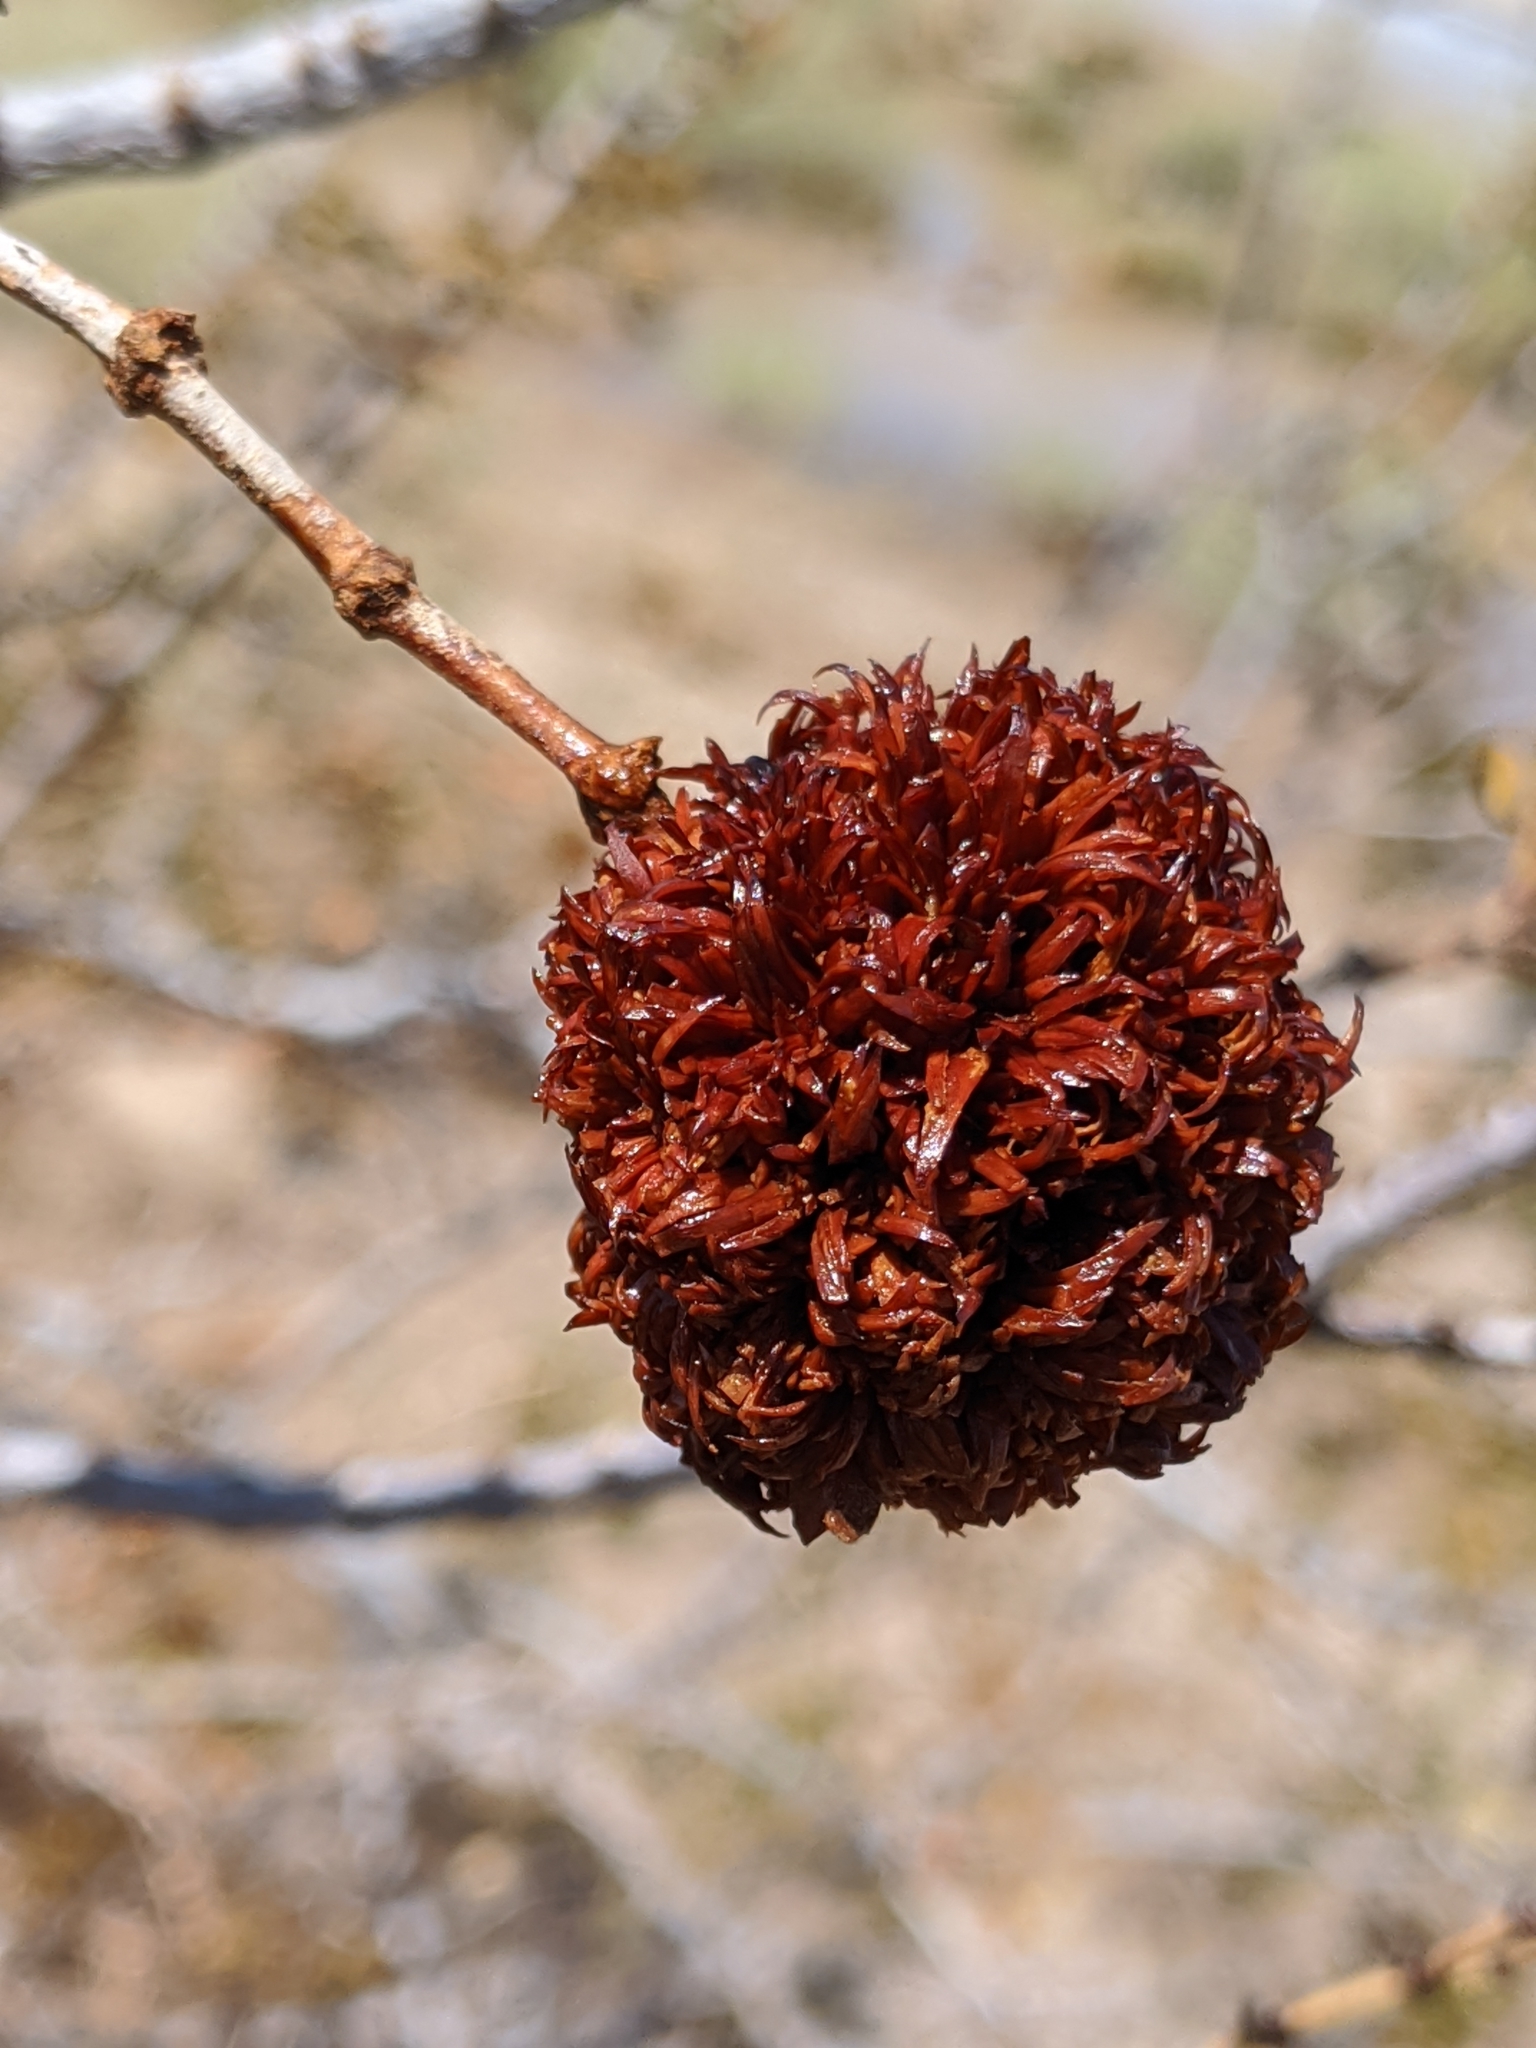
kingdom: Animalia
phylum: Arthropoda
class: Insecta
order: Diptera
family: Cecidomyiidae
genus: Asphondylia
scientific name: Asphondylia auripila
